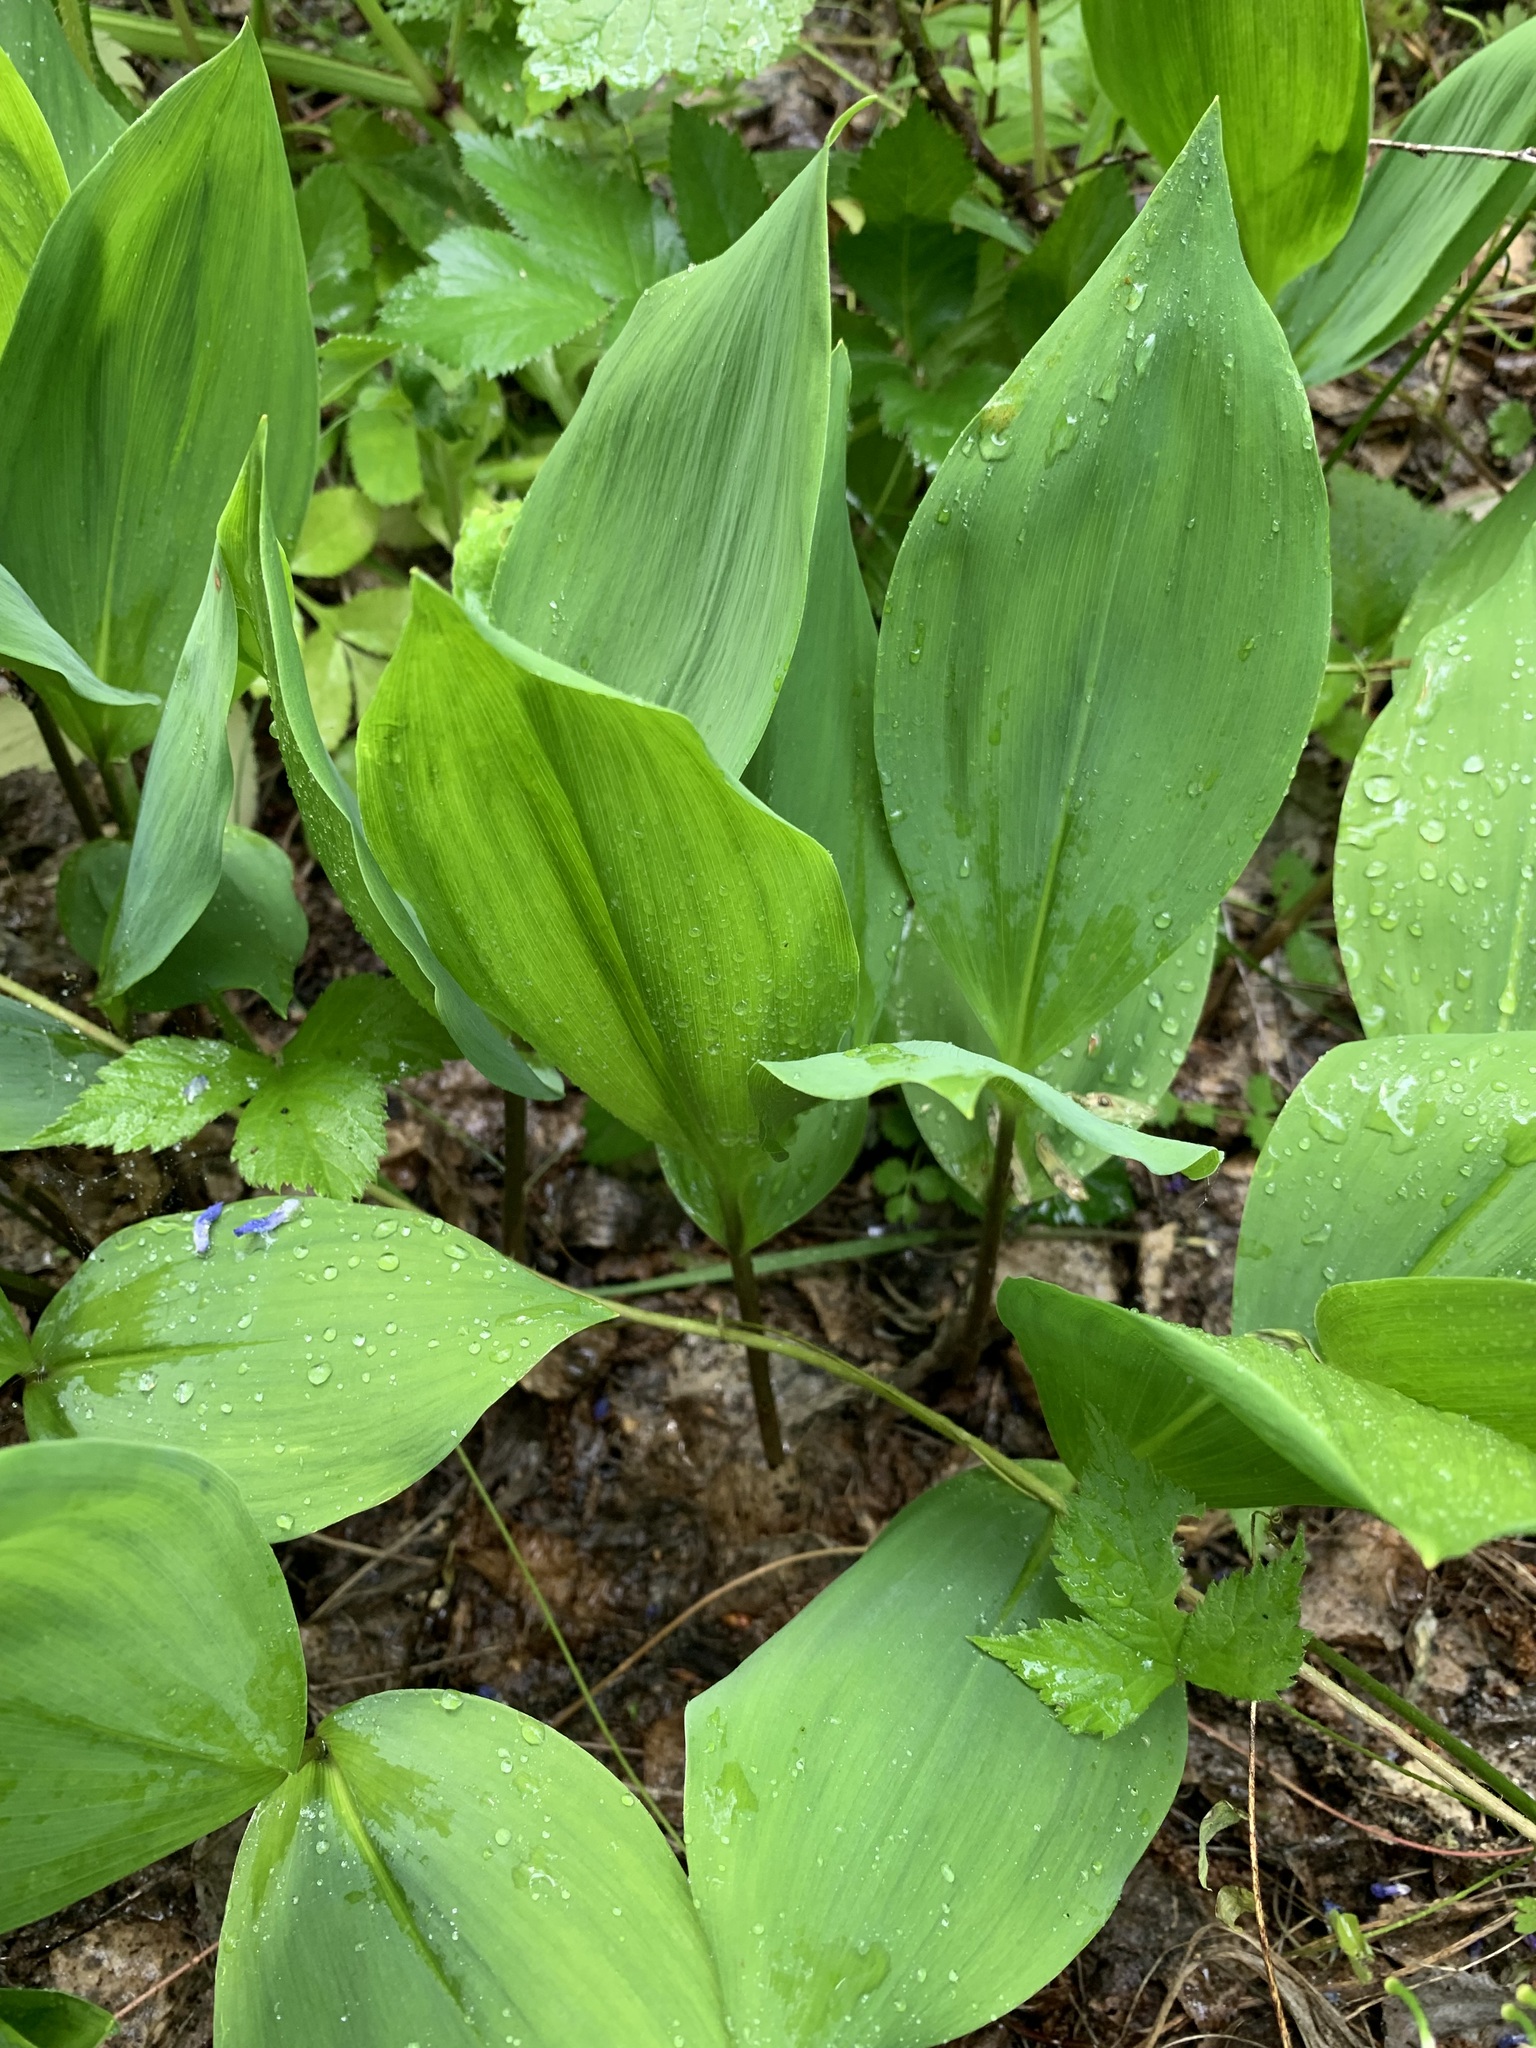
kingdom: Plantae
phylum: Tracheophyta
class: Liliopsida
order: Asparagales
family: Asparagaceae
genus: Convallaria
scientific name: Convallaria majalis
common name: Lily-of-the-valley
